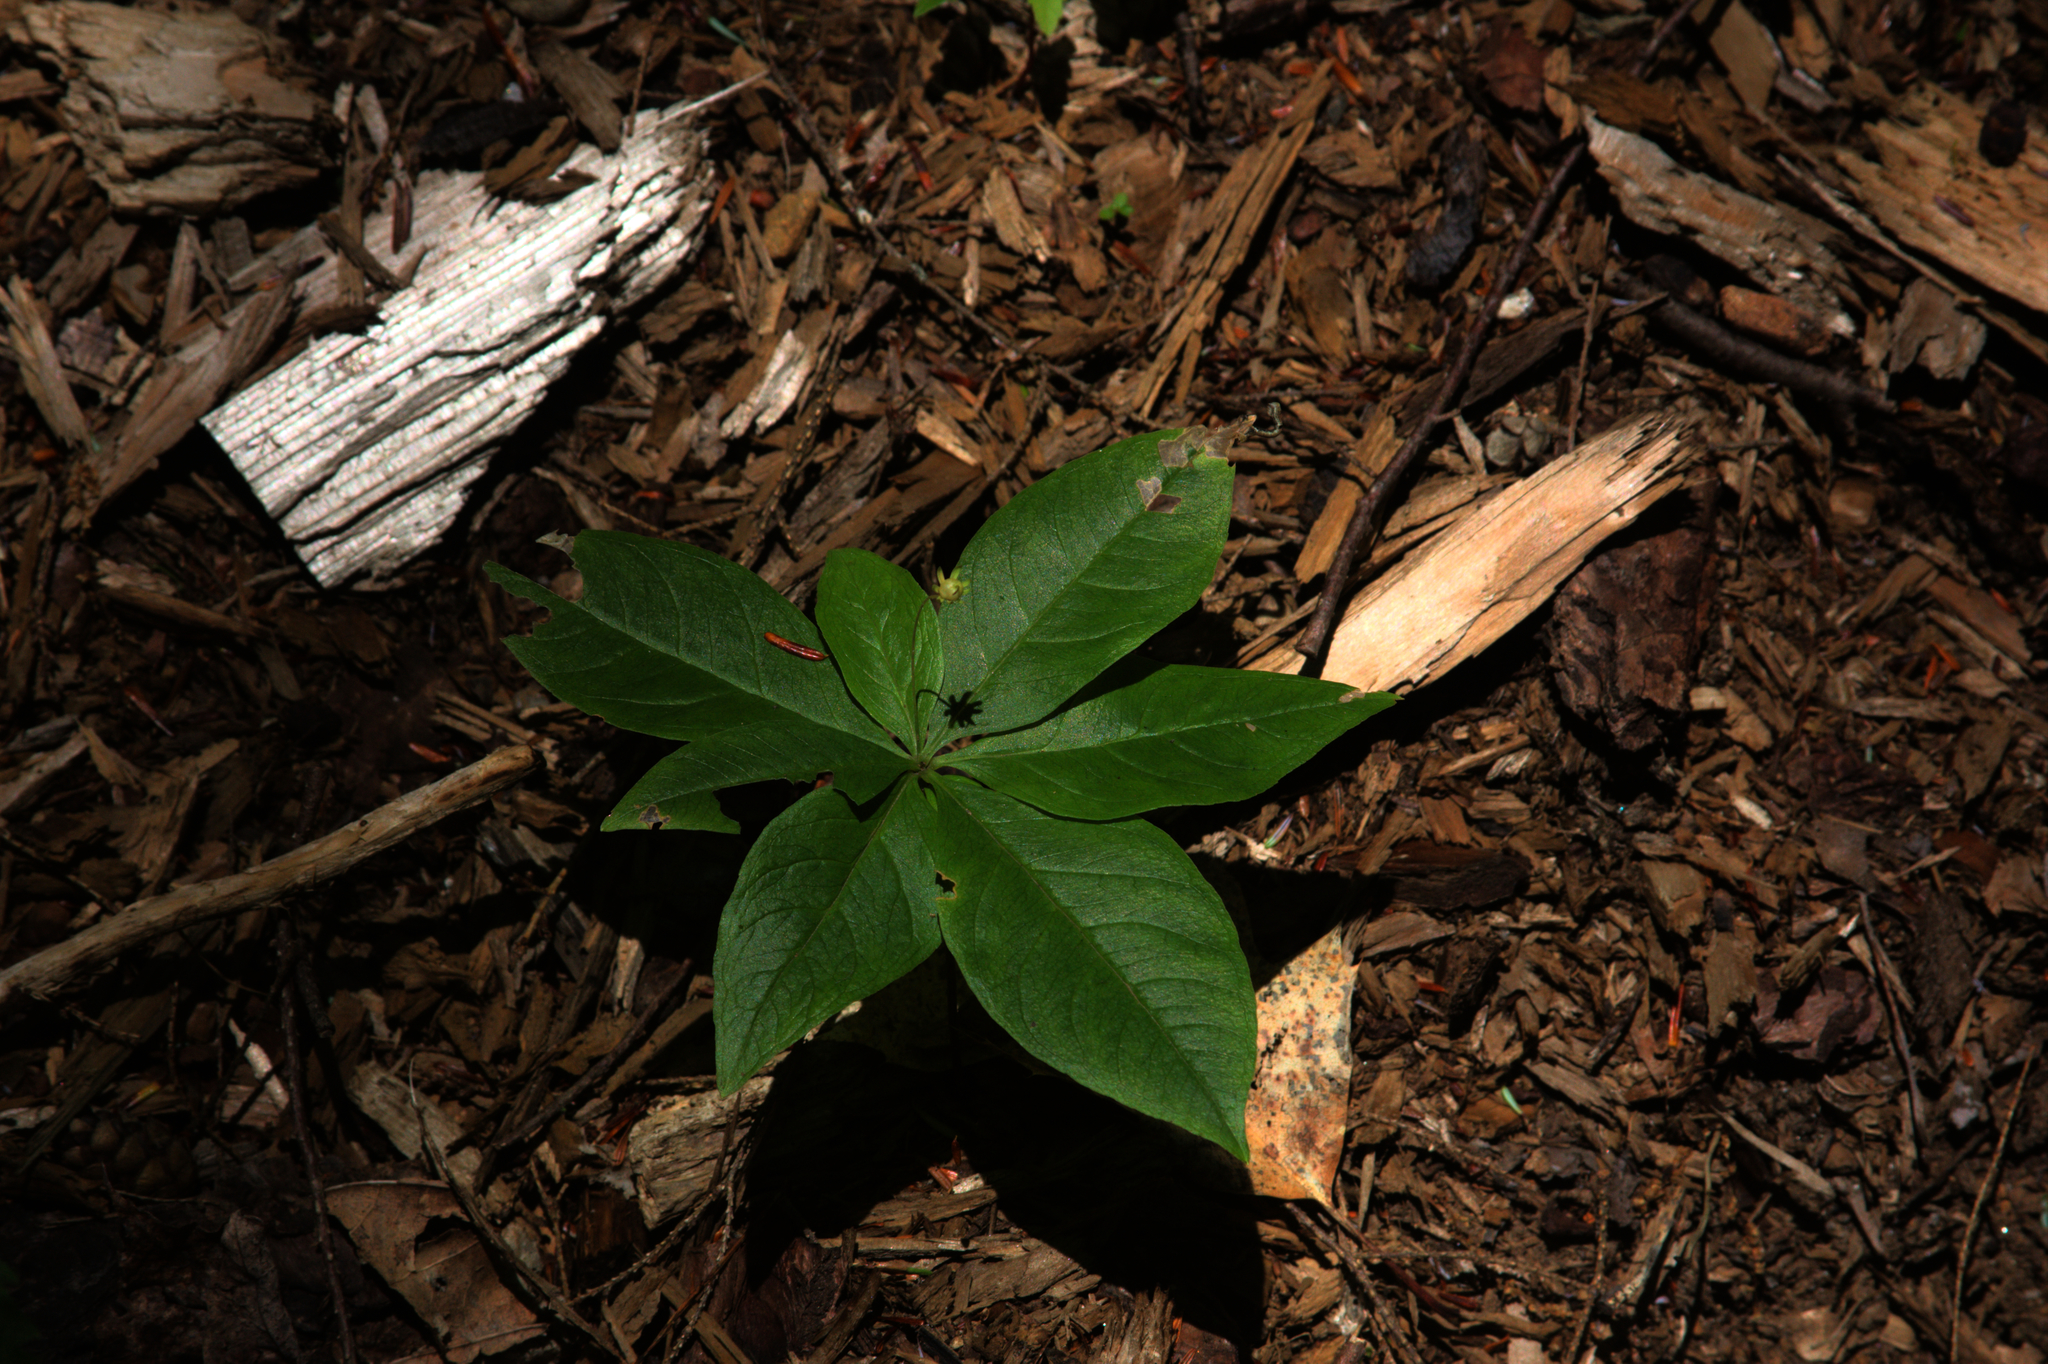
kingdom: Plantae
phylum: Tracheophyta
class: Magnoliopsida
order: Ericales
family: Primulaceae
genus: Lysimachia
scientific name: Lysimachia borealis
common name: American starflower
